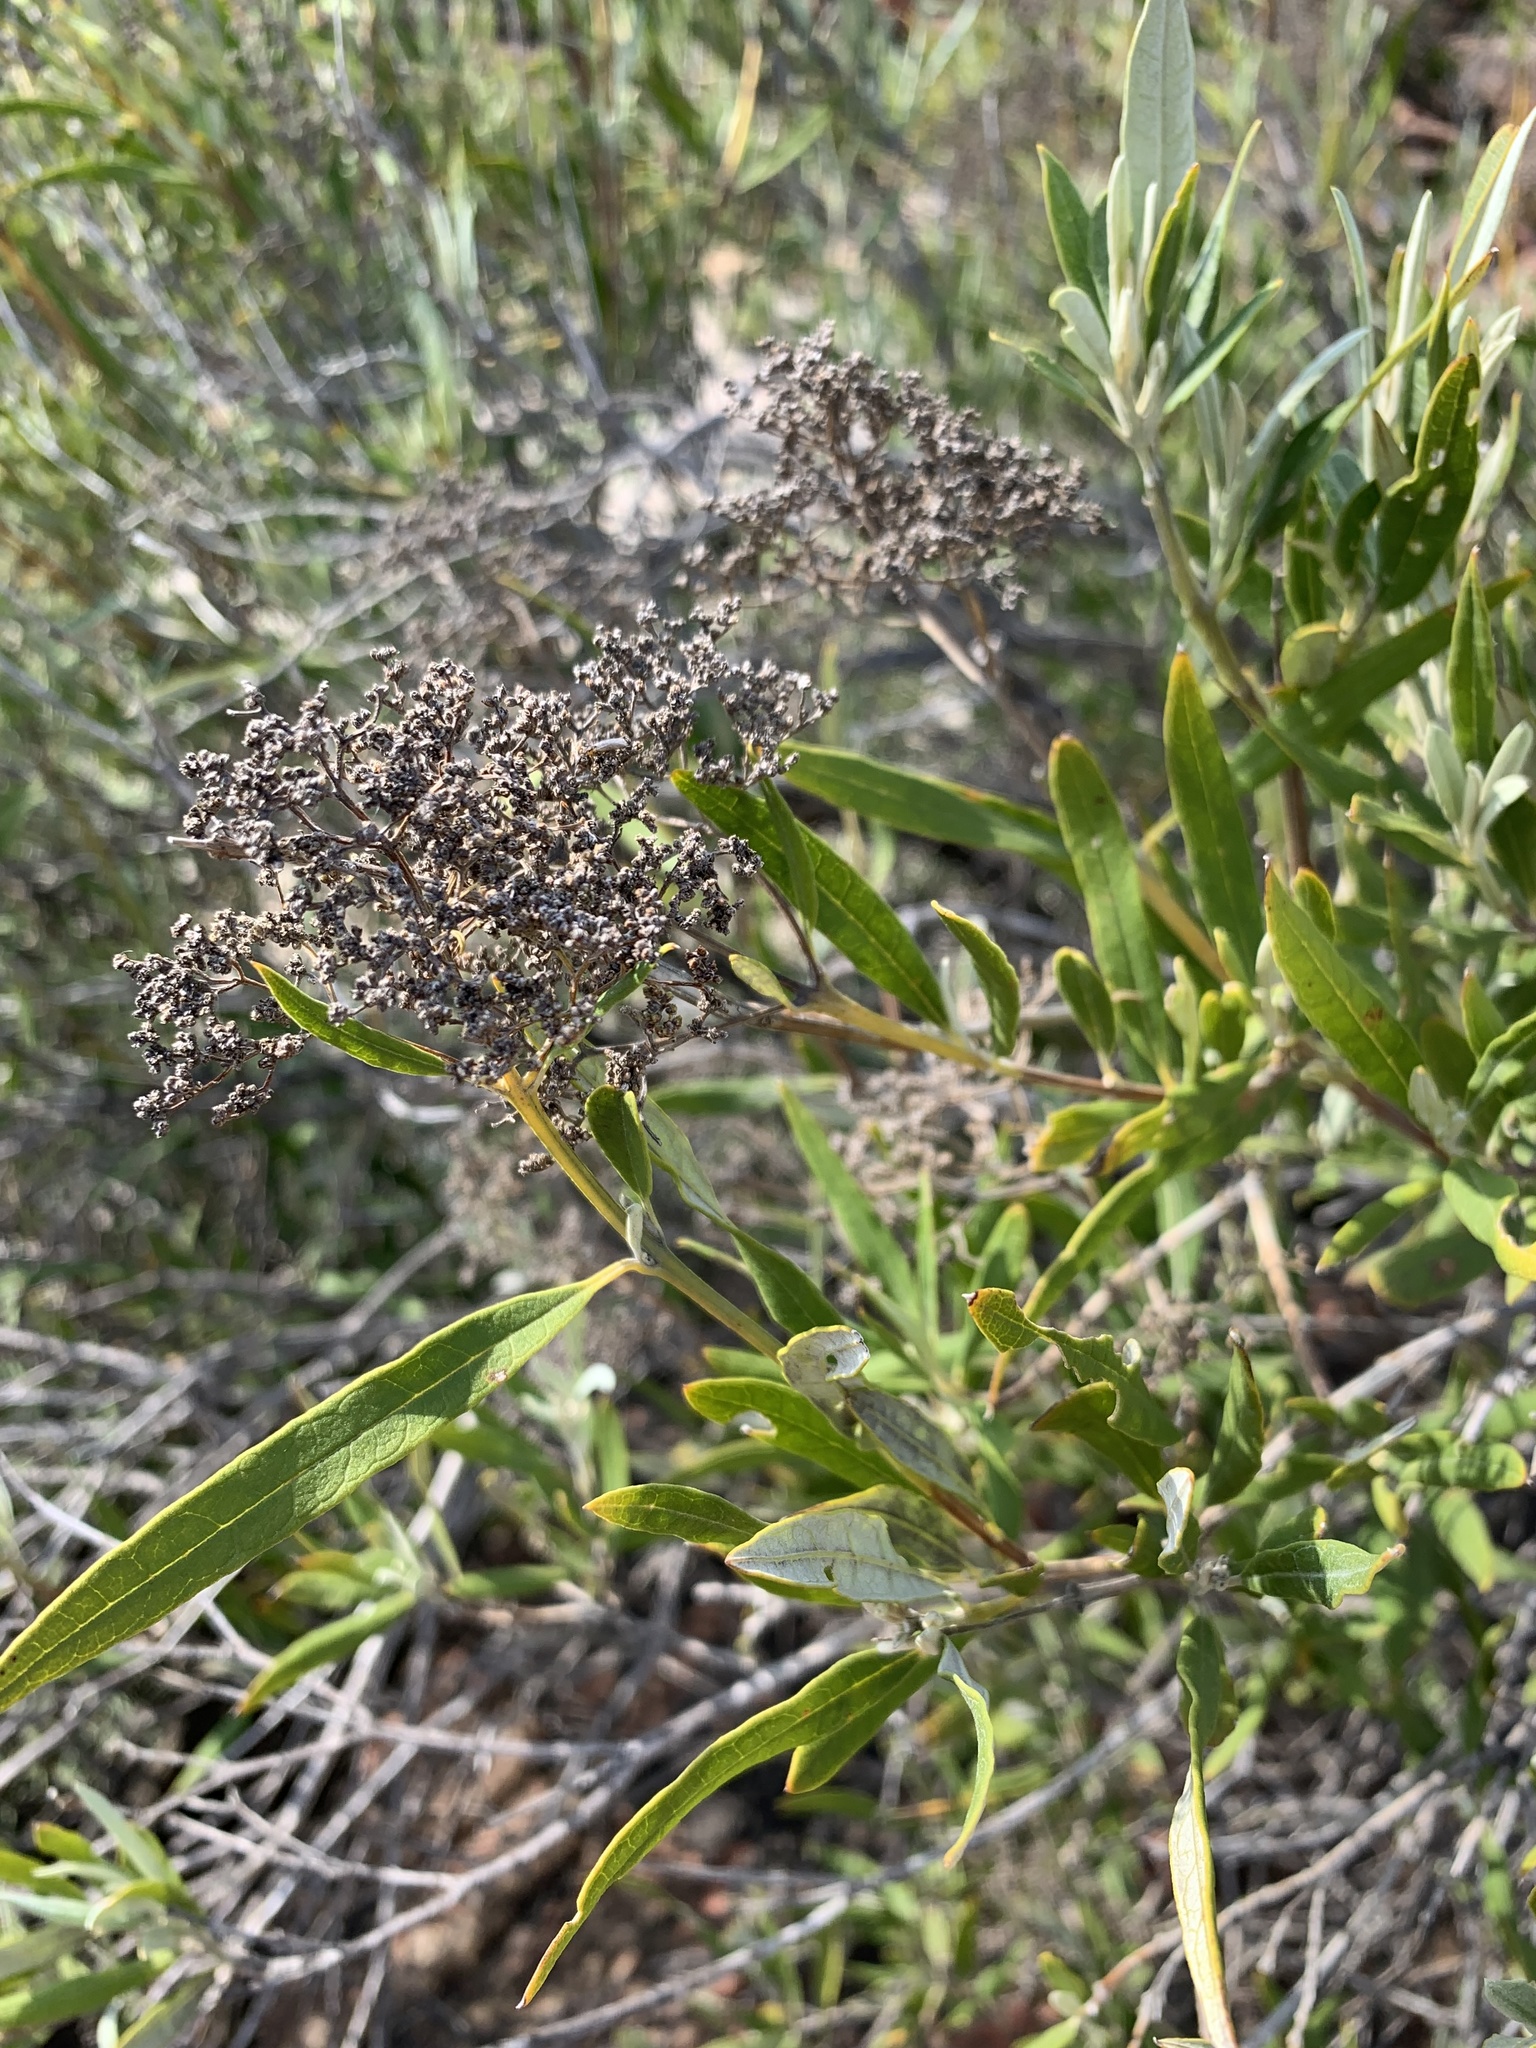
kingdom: Plantae
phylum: Tracheophyta
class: Magnoliopsida
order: Lamiales
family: Scrophulariaceae
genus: Buddleja
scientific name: Buddleja saligna
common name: False olive
